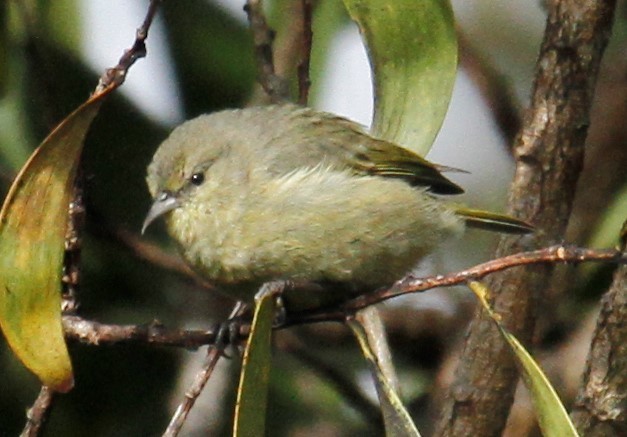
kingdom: Animalia
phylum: Chordata
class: Aves
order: Passeriformes
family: Fringillidae
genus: Chlorodrepanis
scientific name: Chlorodrepanis virens
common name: Hawaii amakihi
